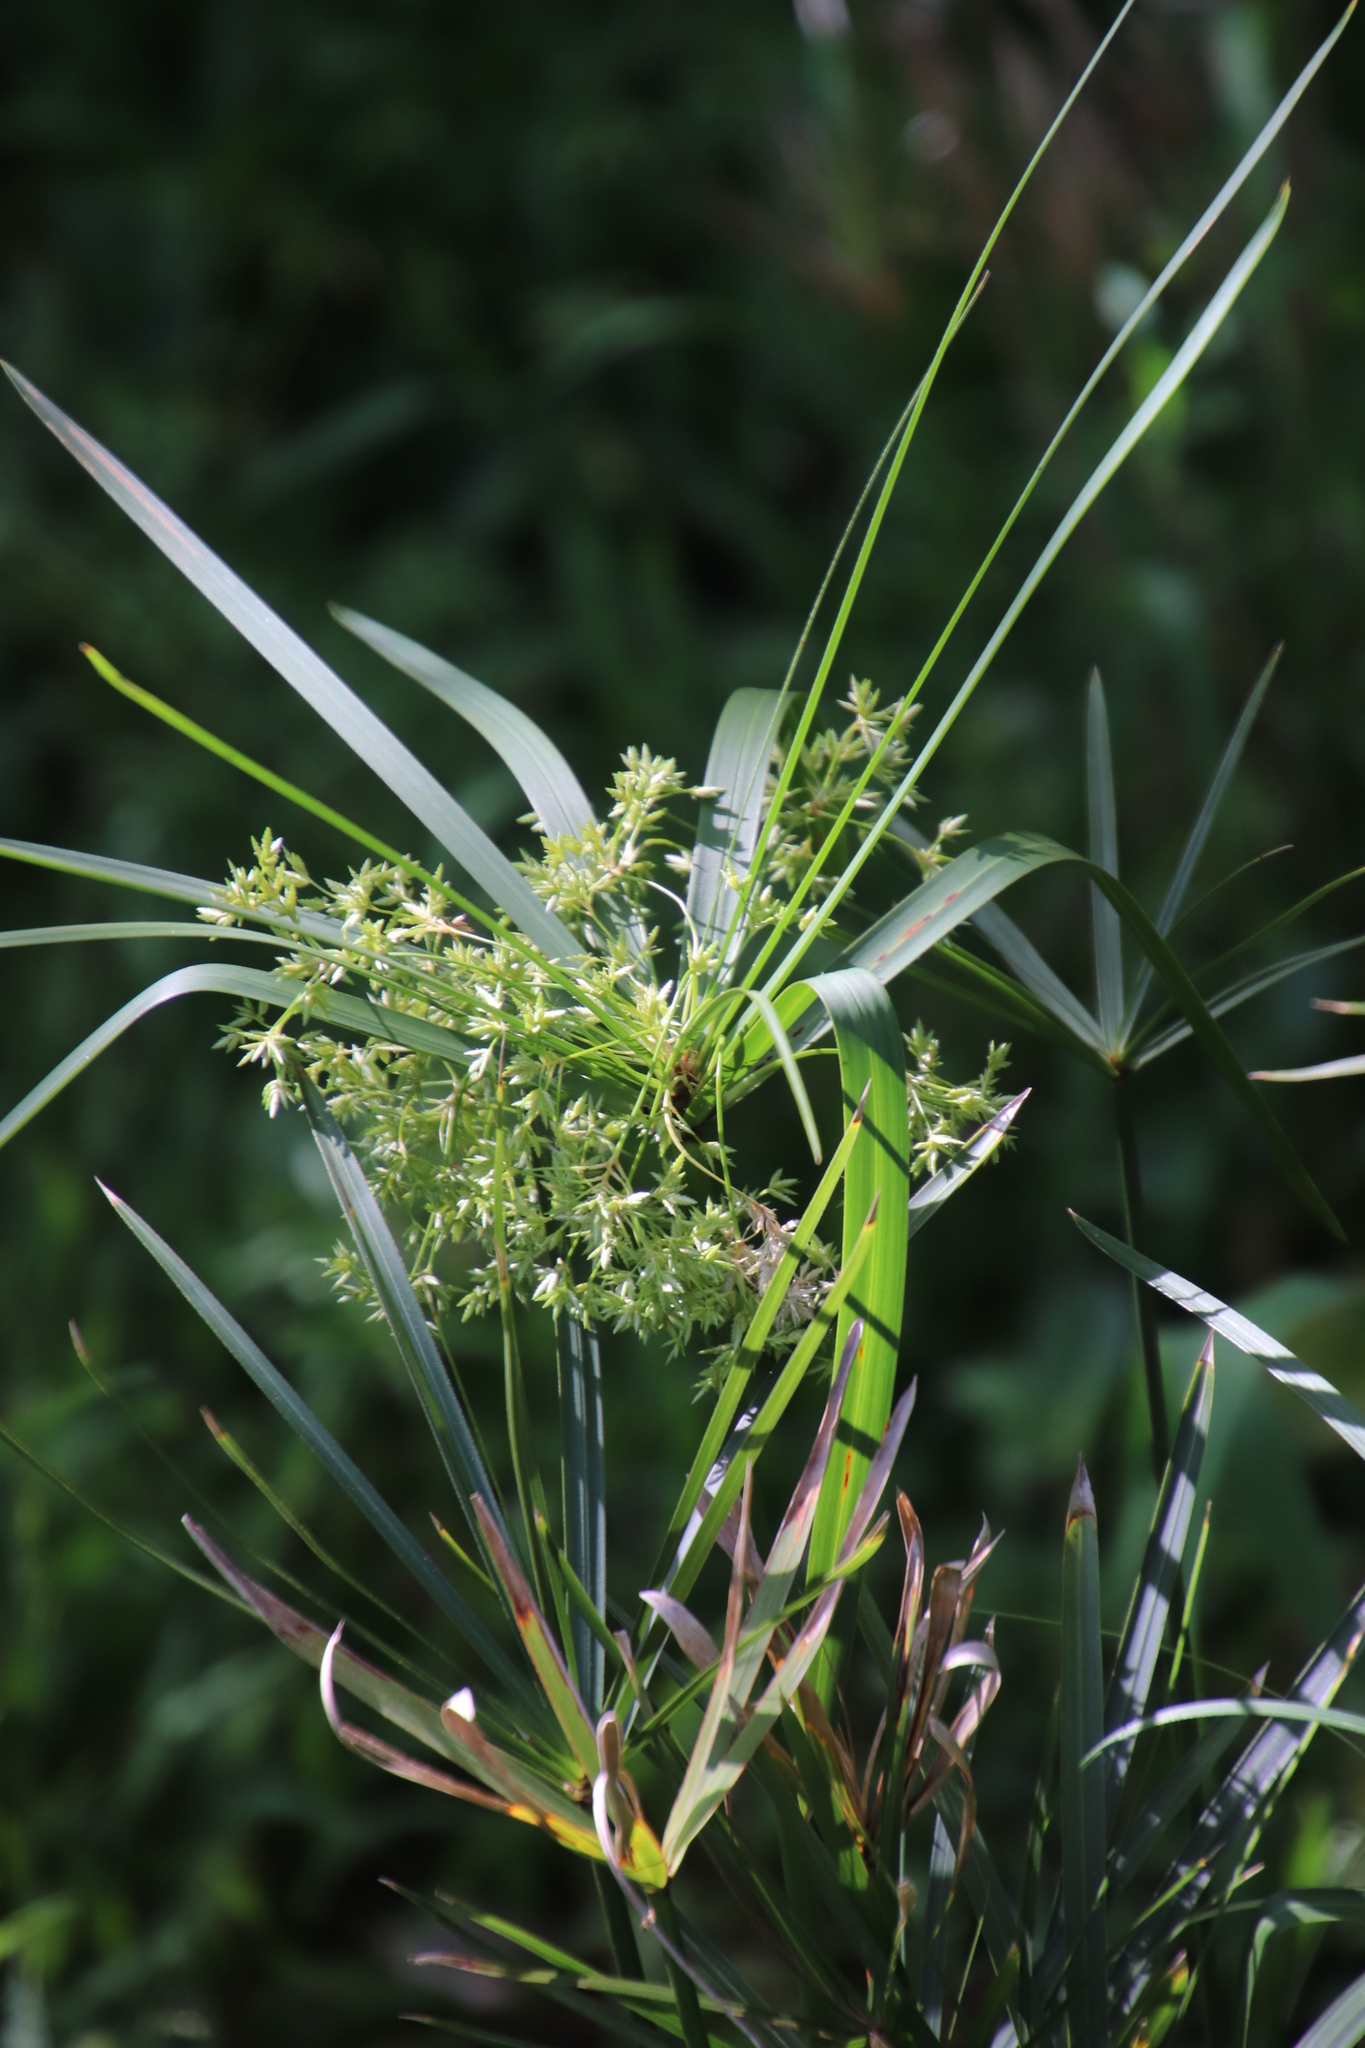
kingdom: Plantae
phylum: Tracheophyta
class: Liliopsida
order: Poales
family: Cyperaceae
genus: Cyperus
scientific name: Cyperus textilis
